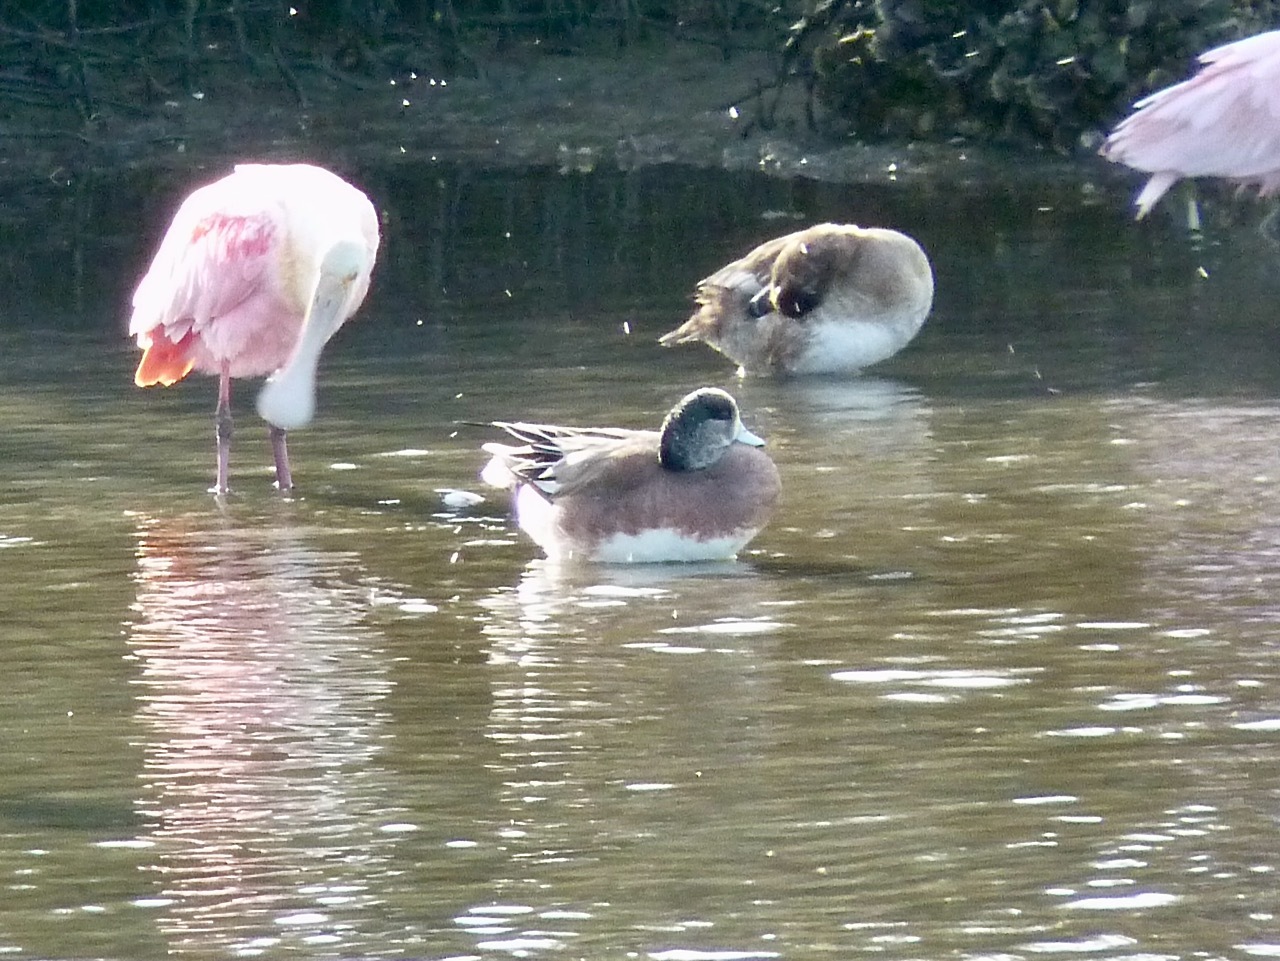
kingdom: Animalia
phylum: Chordata
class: Aves
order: Anseriformes
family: Anatidae
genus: Mareca
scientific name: Mareca americana
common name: American wigeon
